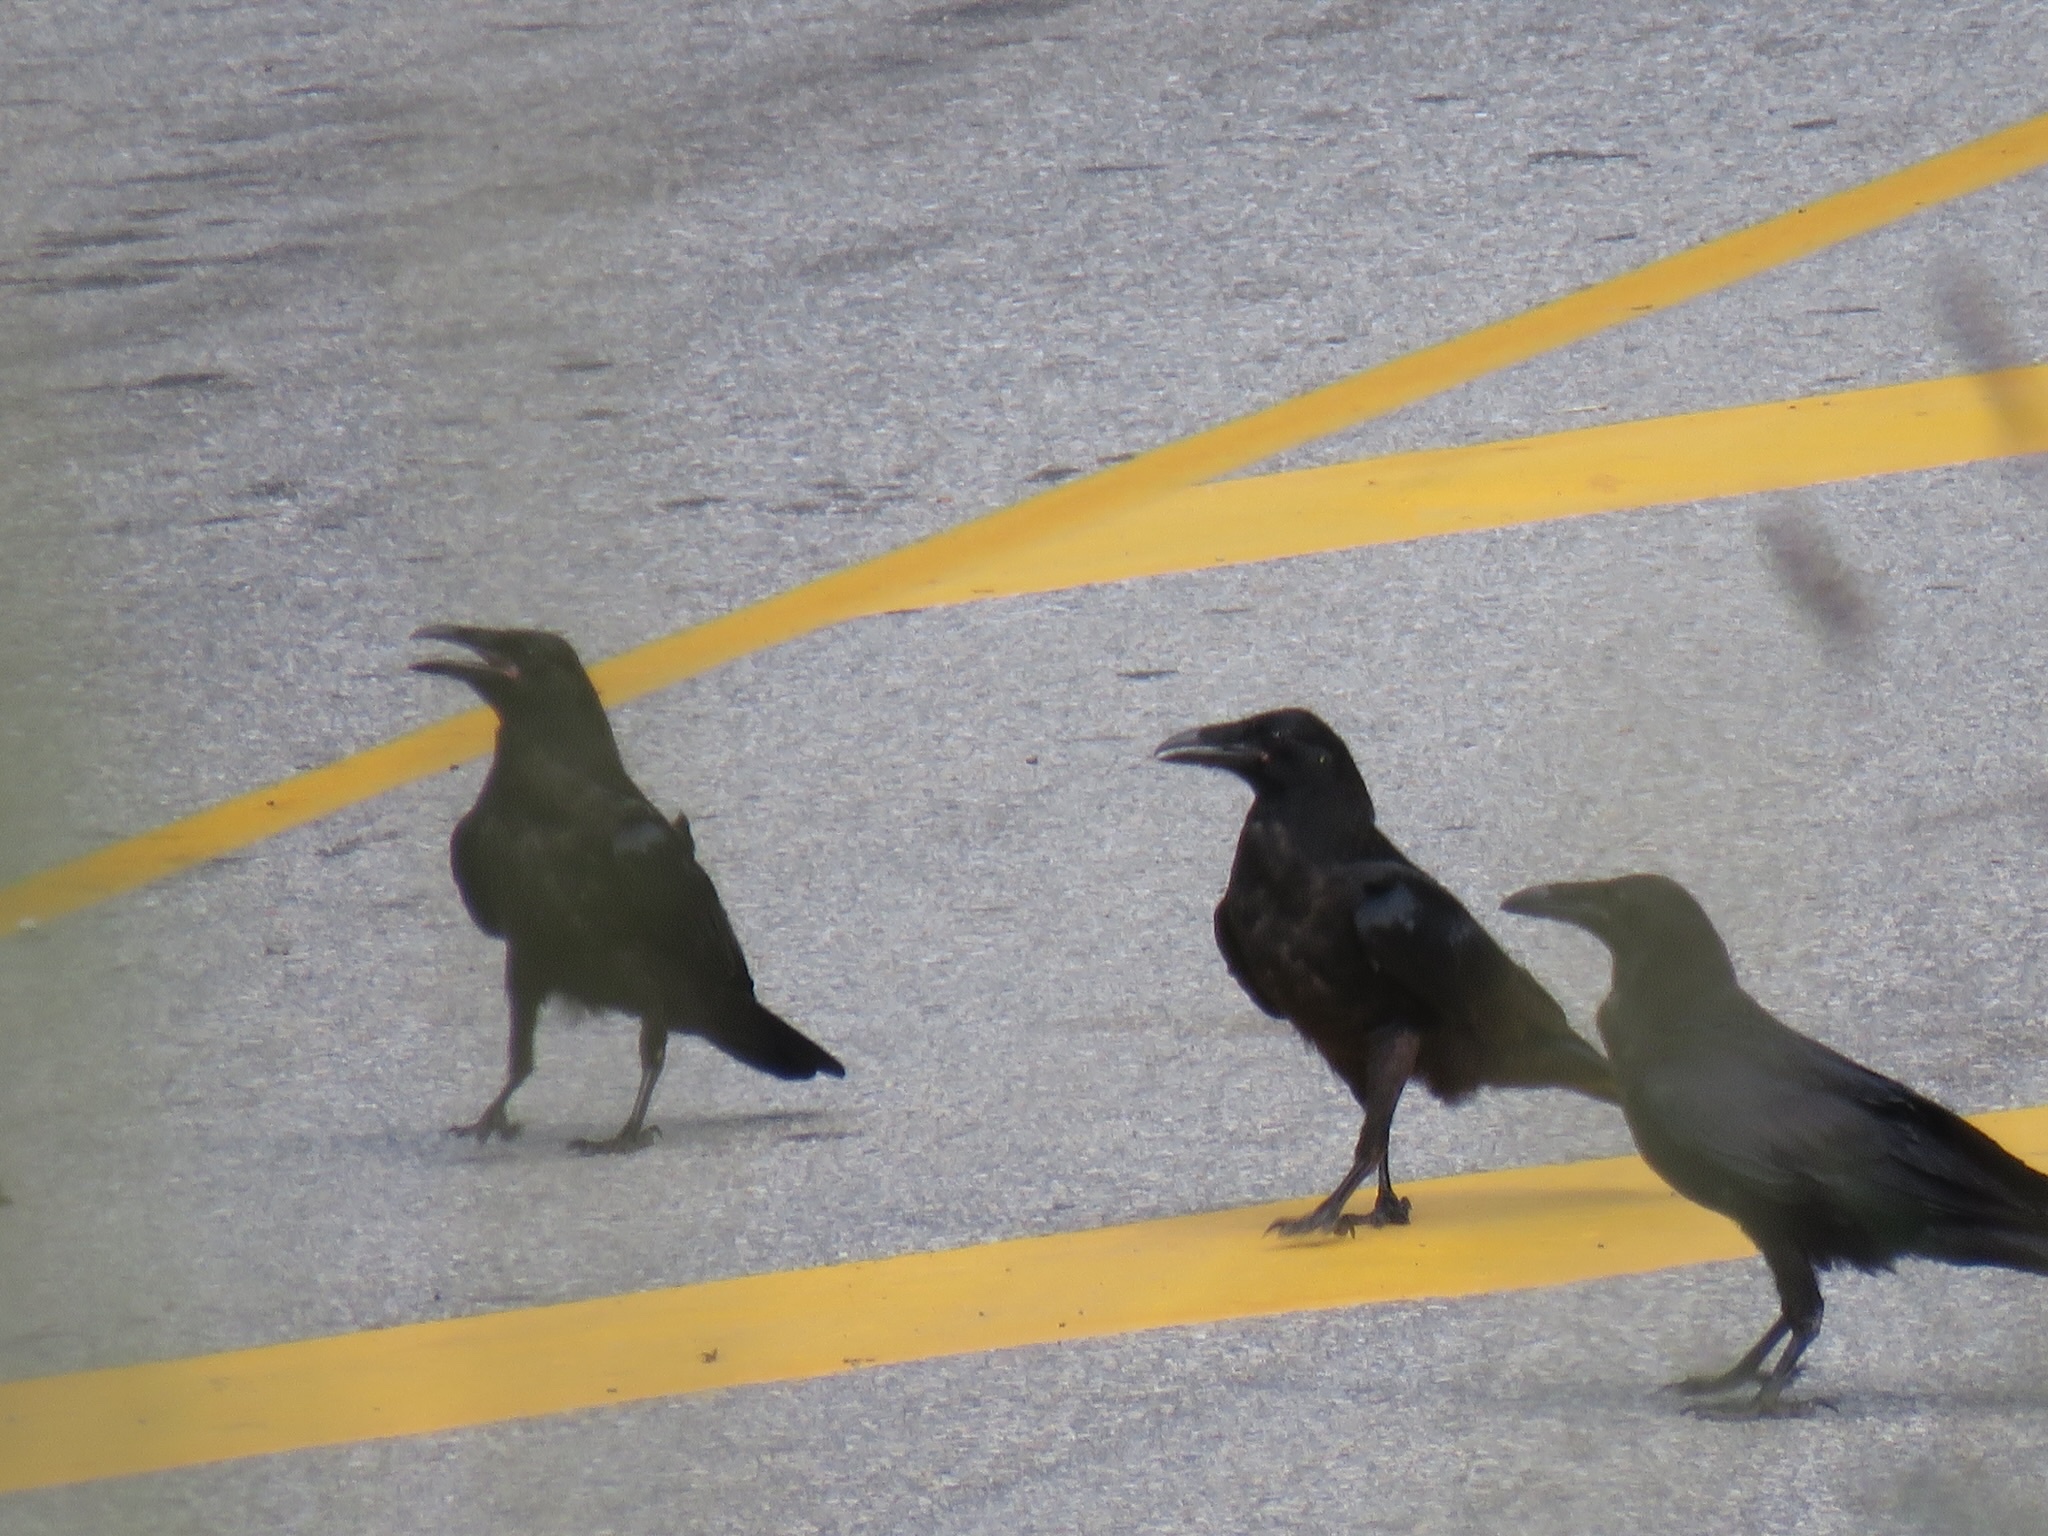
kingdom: Animalia
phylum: Chordata
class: Aves
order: Passeriformes
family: Corvidae
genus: Corvus
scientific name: Corvus corax
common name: Common raven
